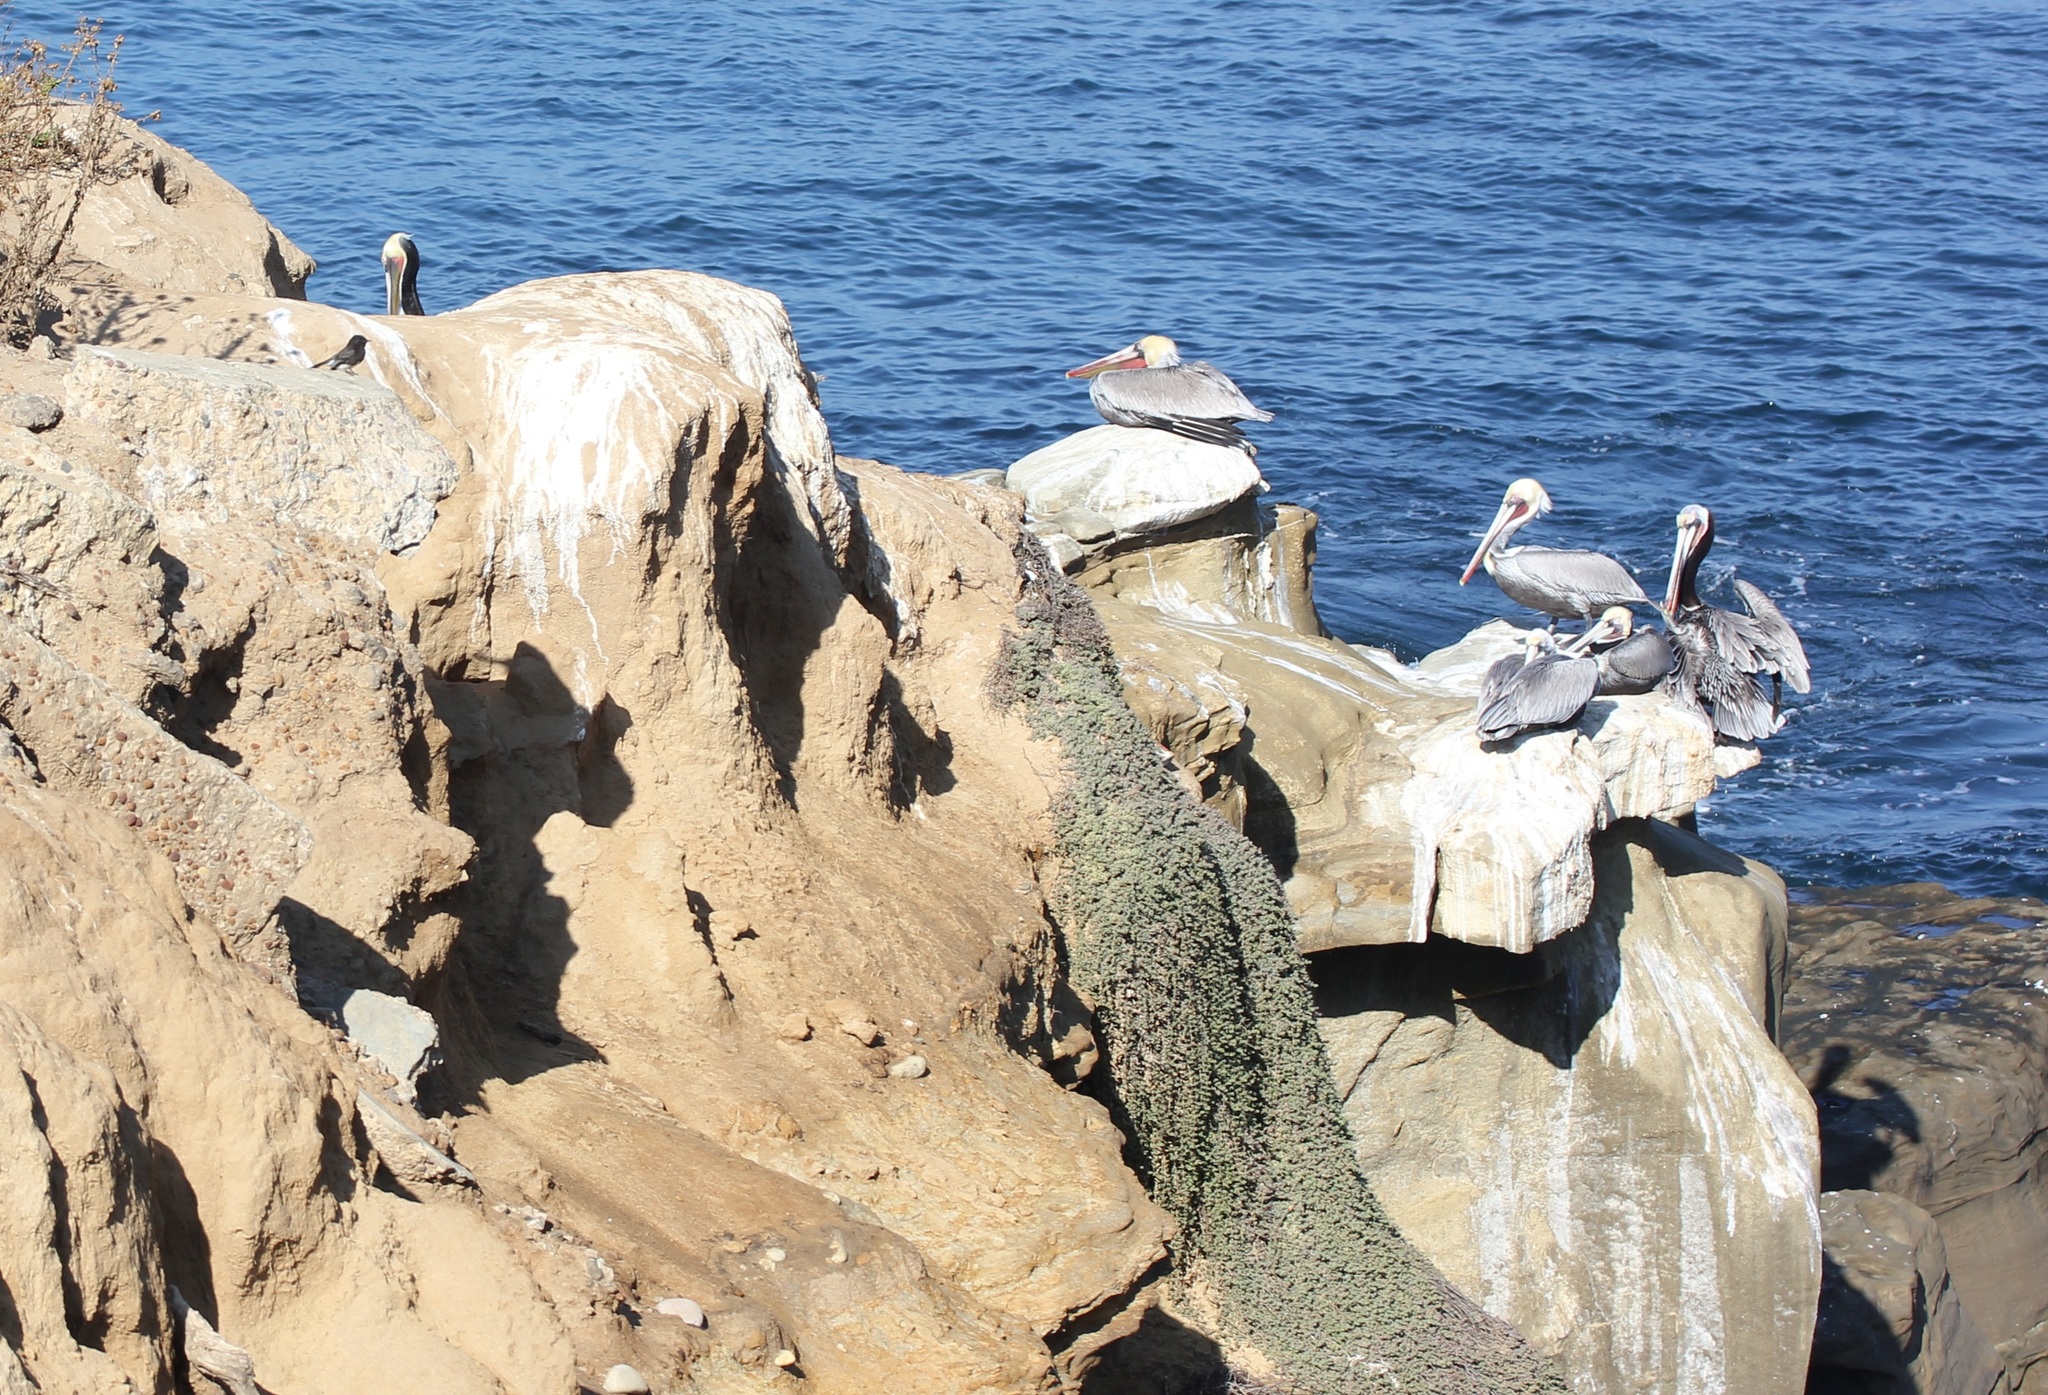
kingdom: Animalia
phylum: Chordata
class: Aves
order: Pelecaniformes
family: Pelecanidae
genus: Pelecanus
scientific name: Pelecanus occidentalis
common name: Brown pelican
